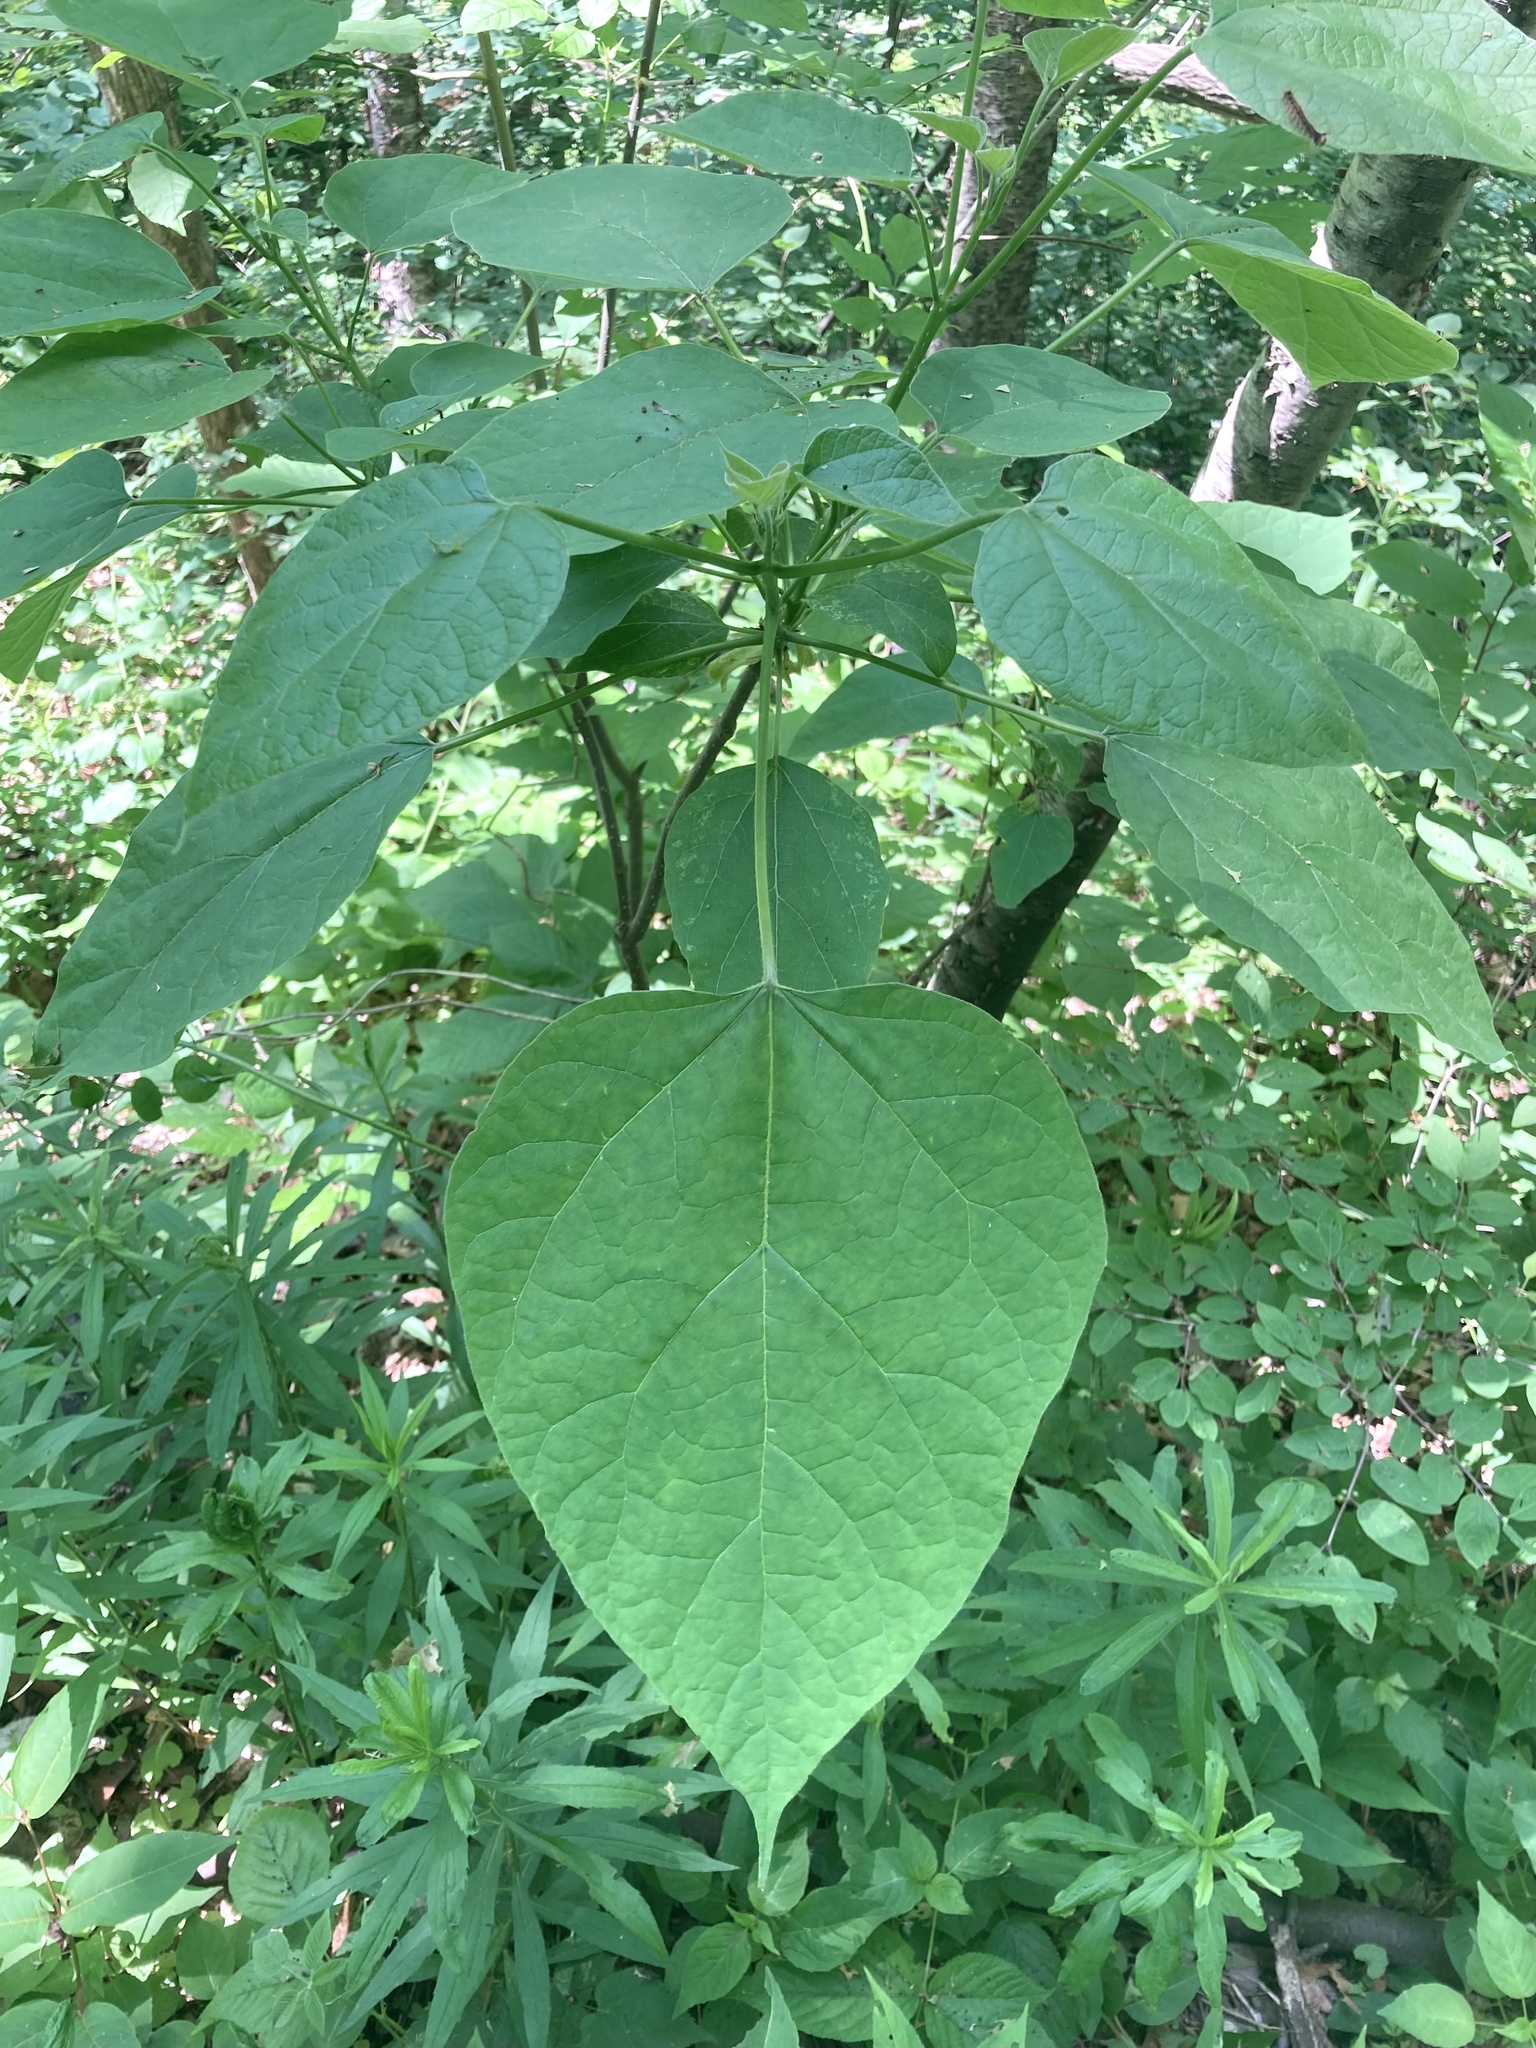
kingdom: Plantae
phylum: Tracheophyta
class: Magnoliopsida
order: Lamiales
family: Bignoniaceae
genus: Catalpa
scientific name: Catalpa speciosa
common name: Northern catalpa
